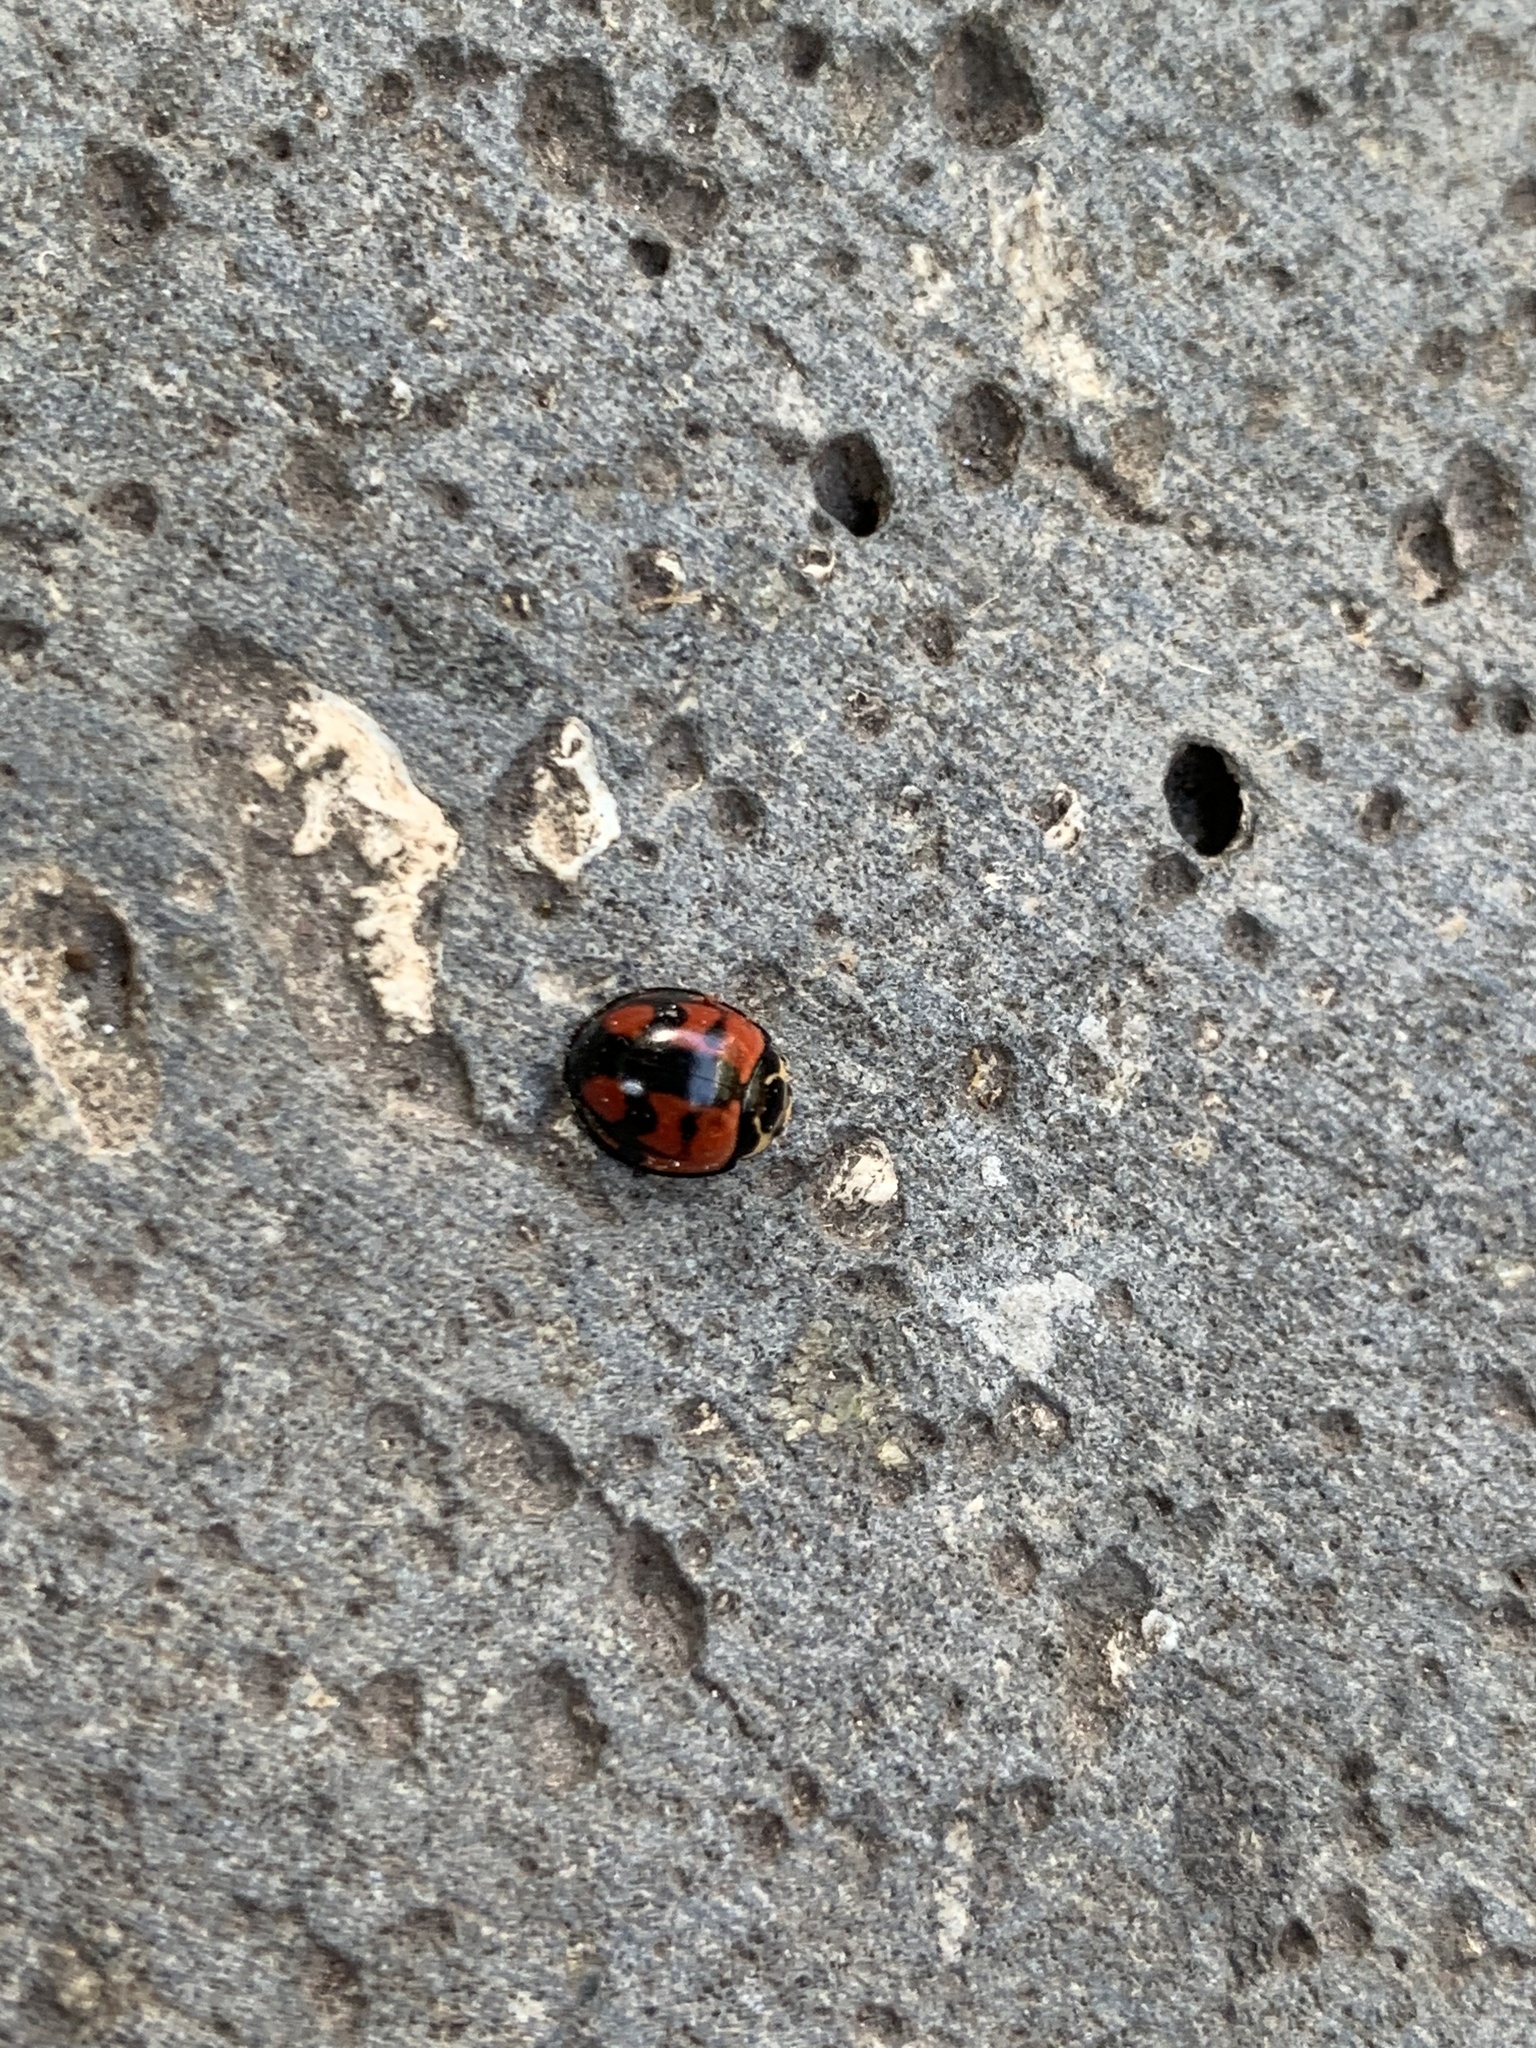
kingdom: Animalia
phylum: Arthropoda
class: Insecta
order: Coleoptera
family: Coccinellidae
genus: Cheilomenes
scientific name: Cheilomenes sexmaculata
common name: Ladybird beetle
